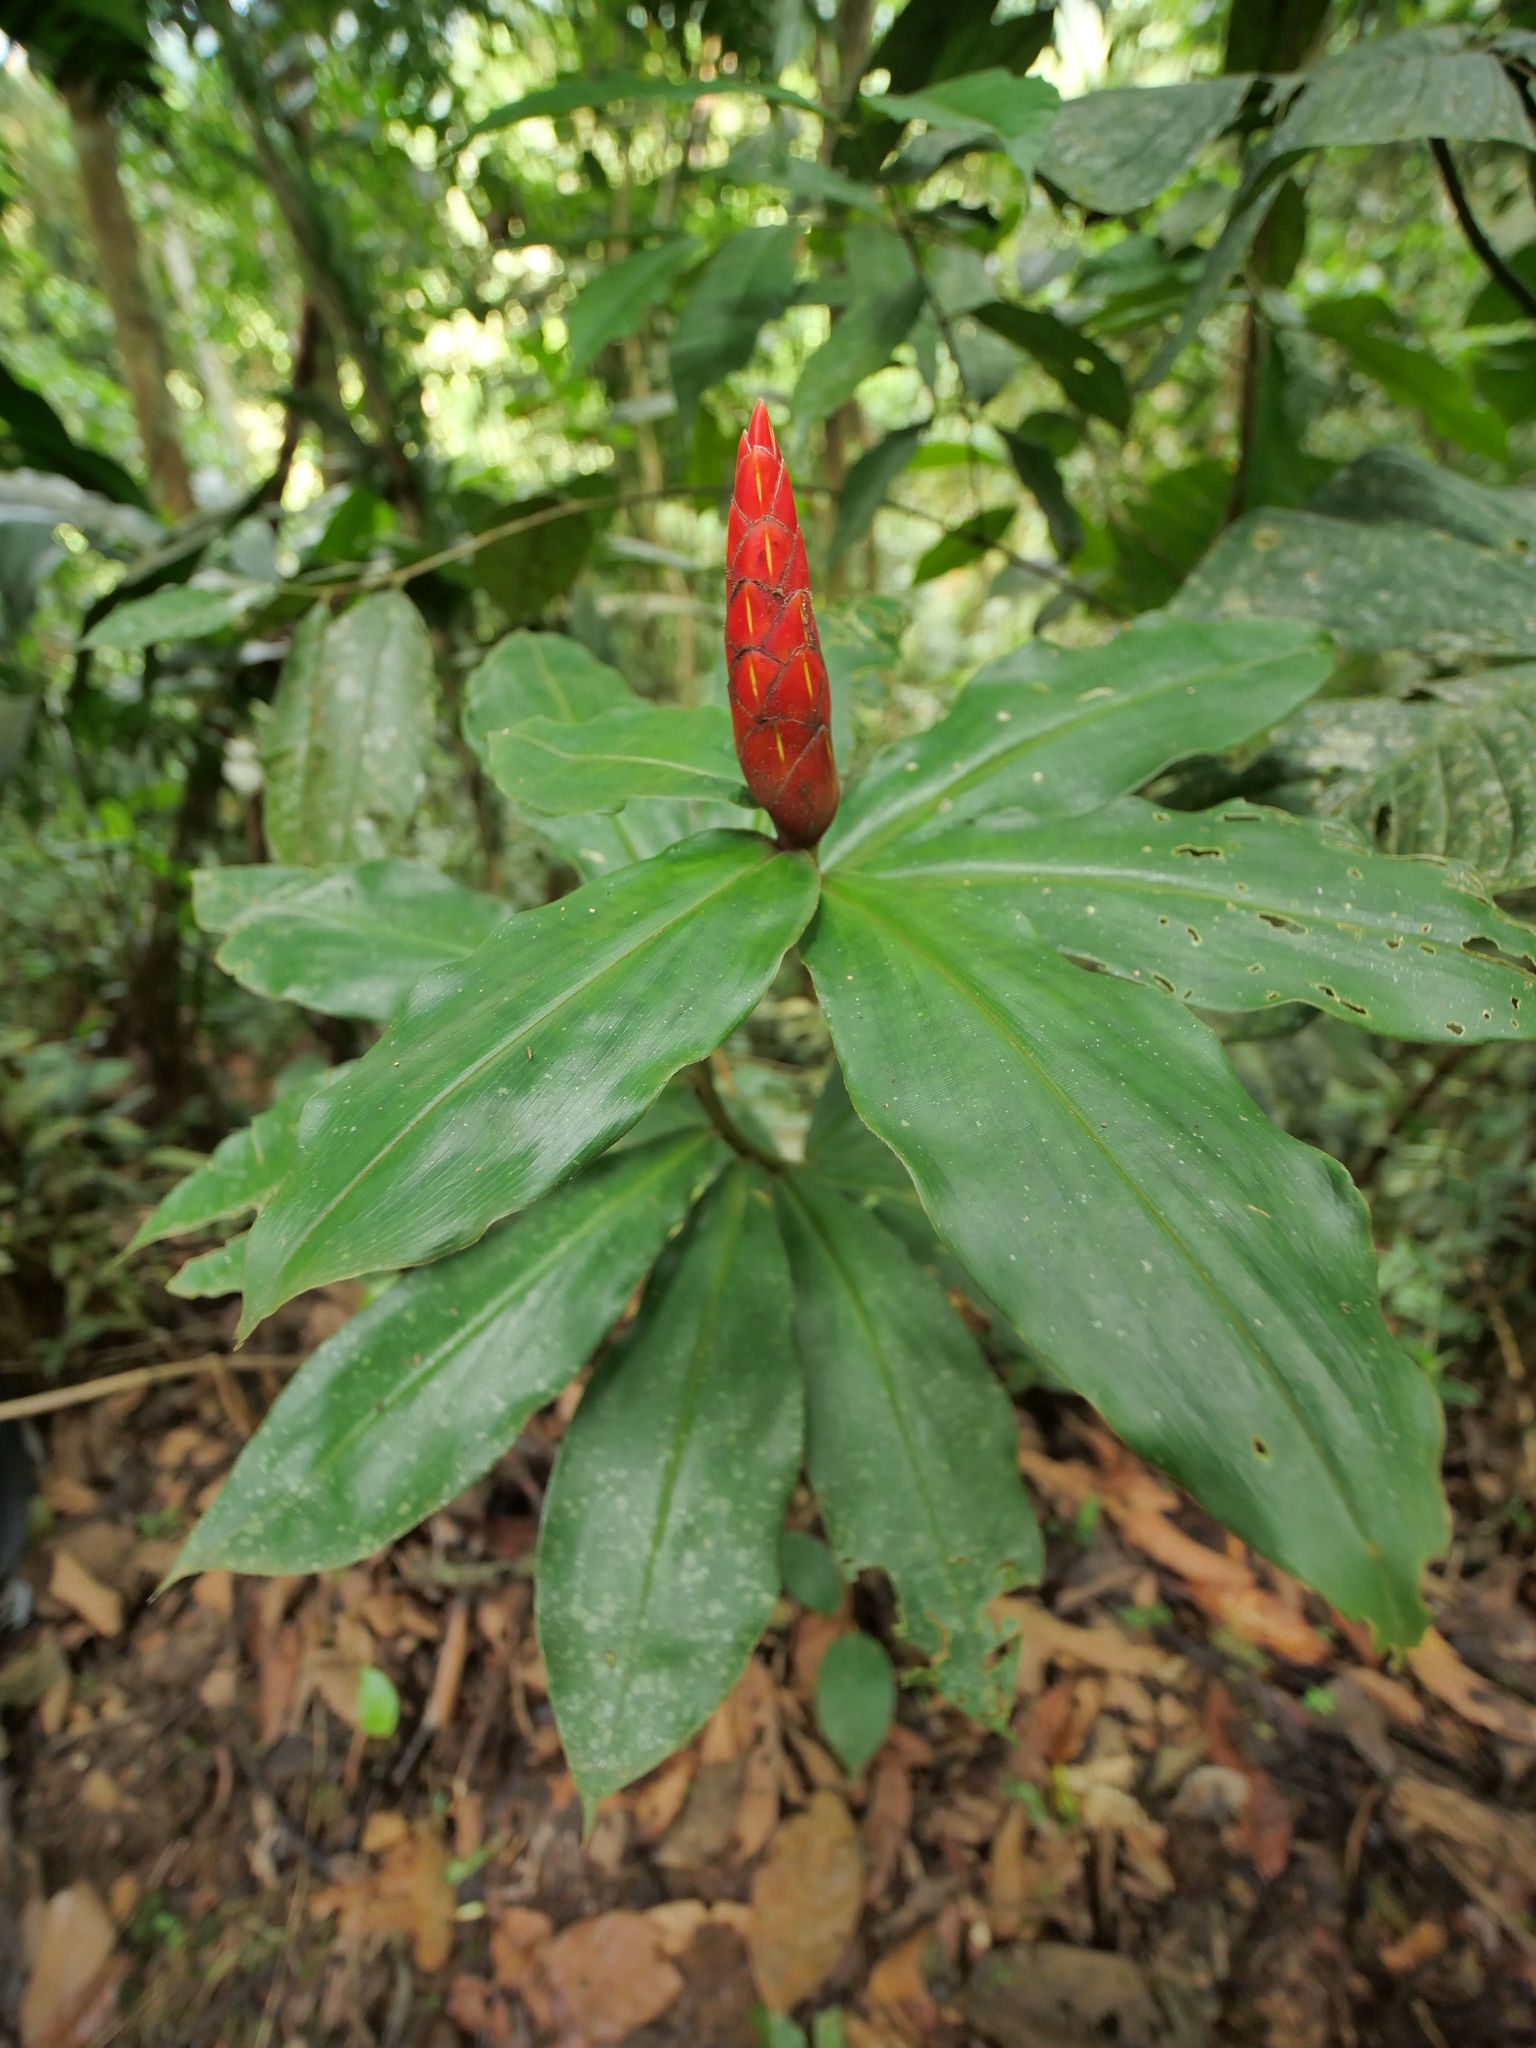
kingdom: Plantae
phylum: Tracheophyta
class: Liliopsida
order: Zingiberales
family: Costaceae
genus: Costus
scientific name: Costus pulverulentus
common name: Spiral ginger
